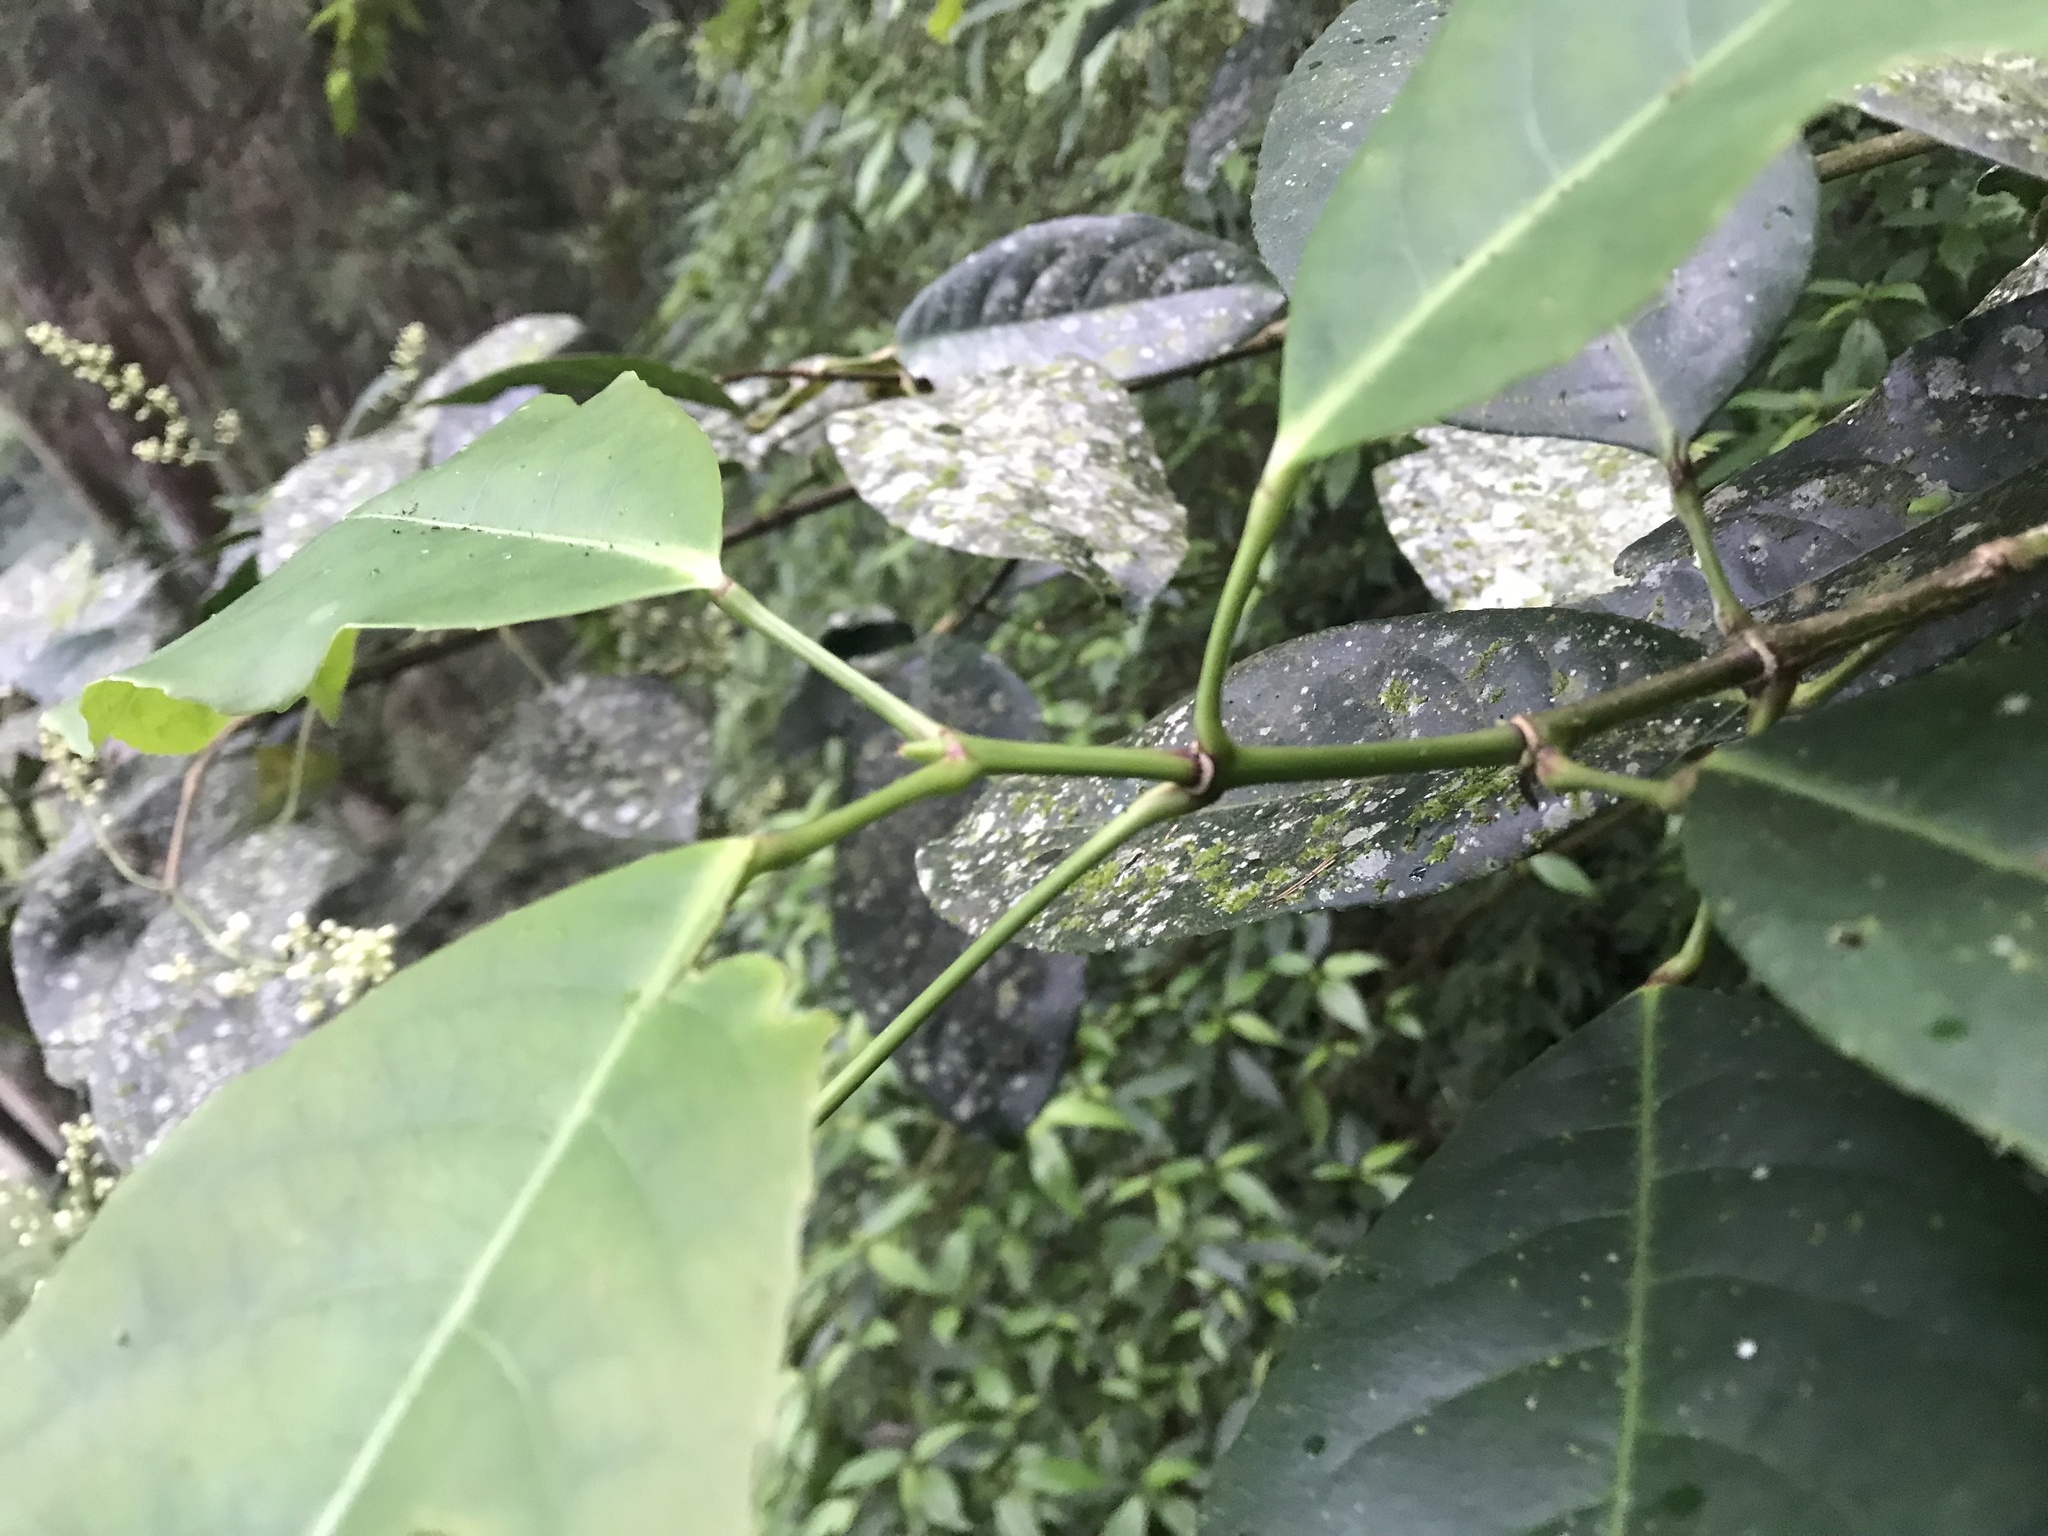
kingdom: Plantae
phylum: Tracheophyta
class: Magnoliopsida
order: Crossosomatales
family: Staphyleaceae
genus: Turpinia
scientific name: Turpinia formosana
